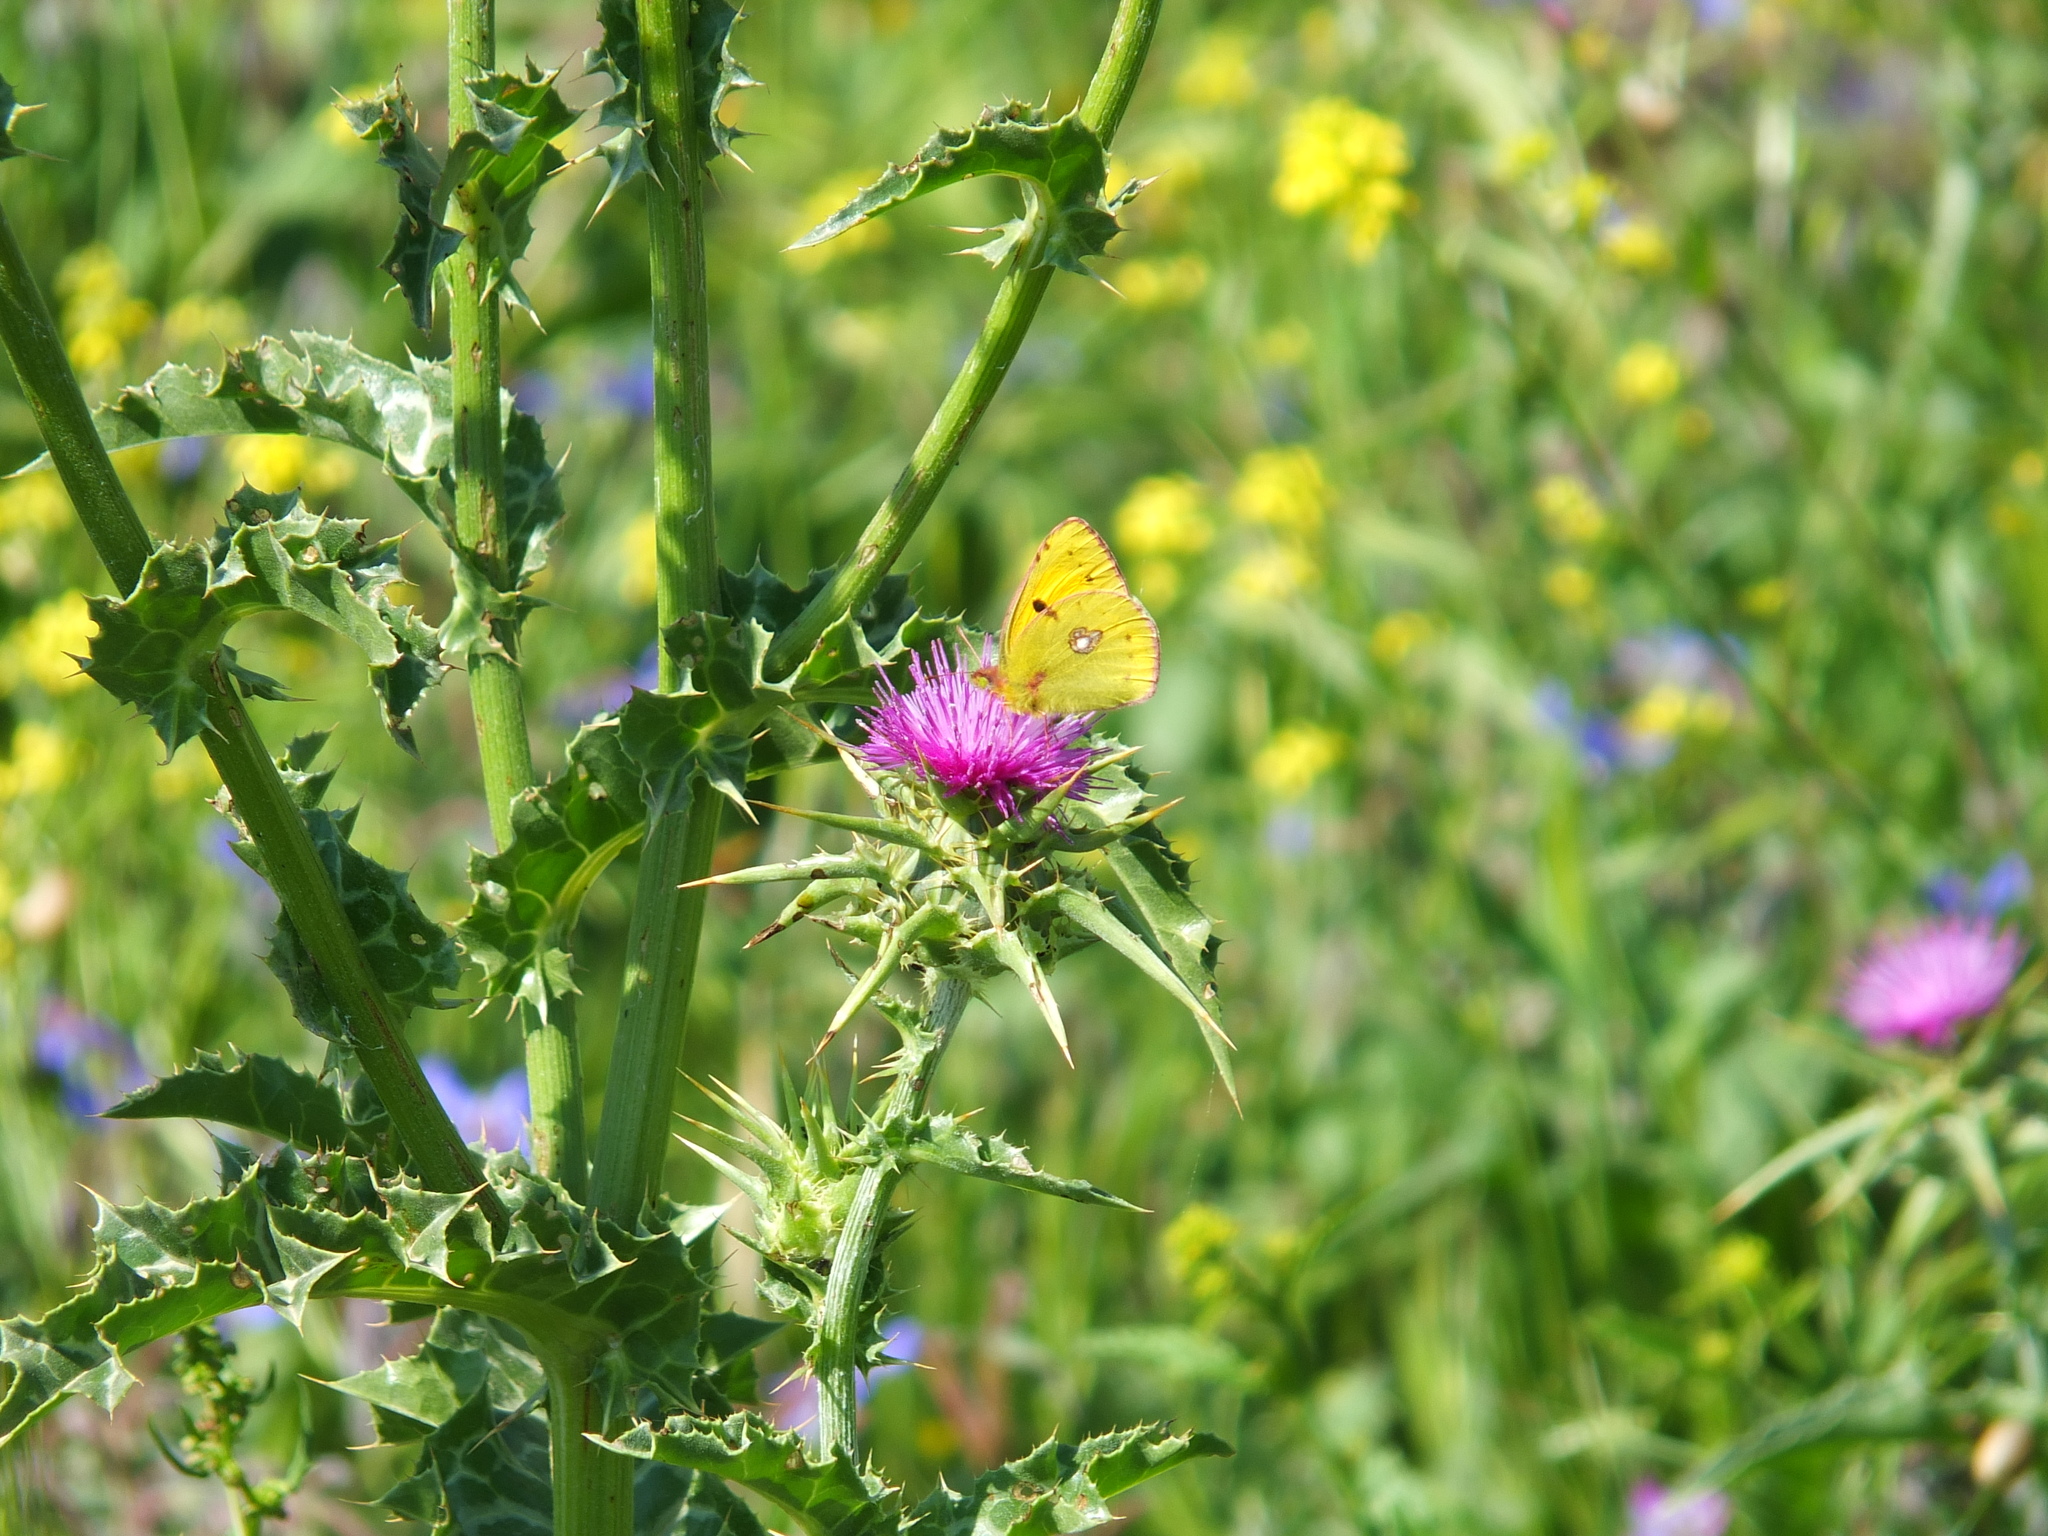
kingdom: Plantae
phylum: Tracheophyta
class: Magnoliopsida
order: Asterales
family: Asteraceae
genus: Silybum
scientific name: Silybum marianum
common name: Milk thistle
